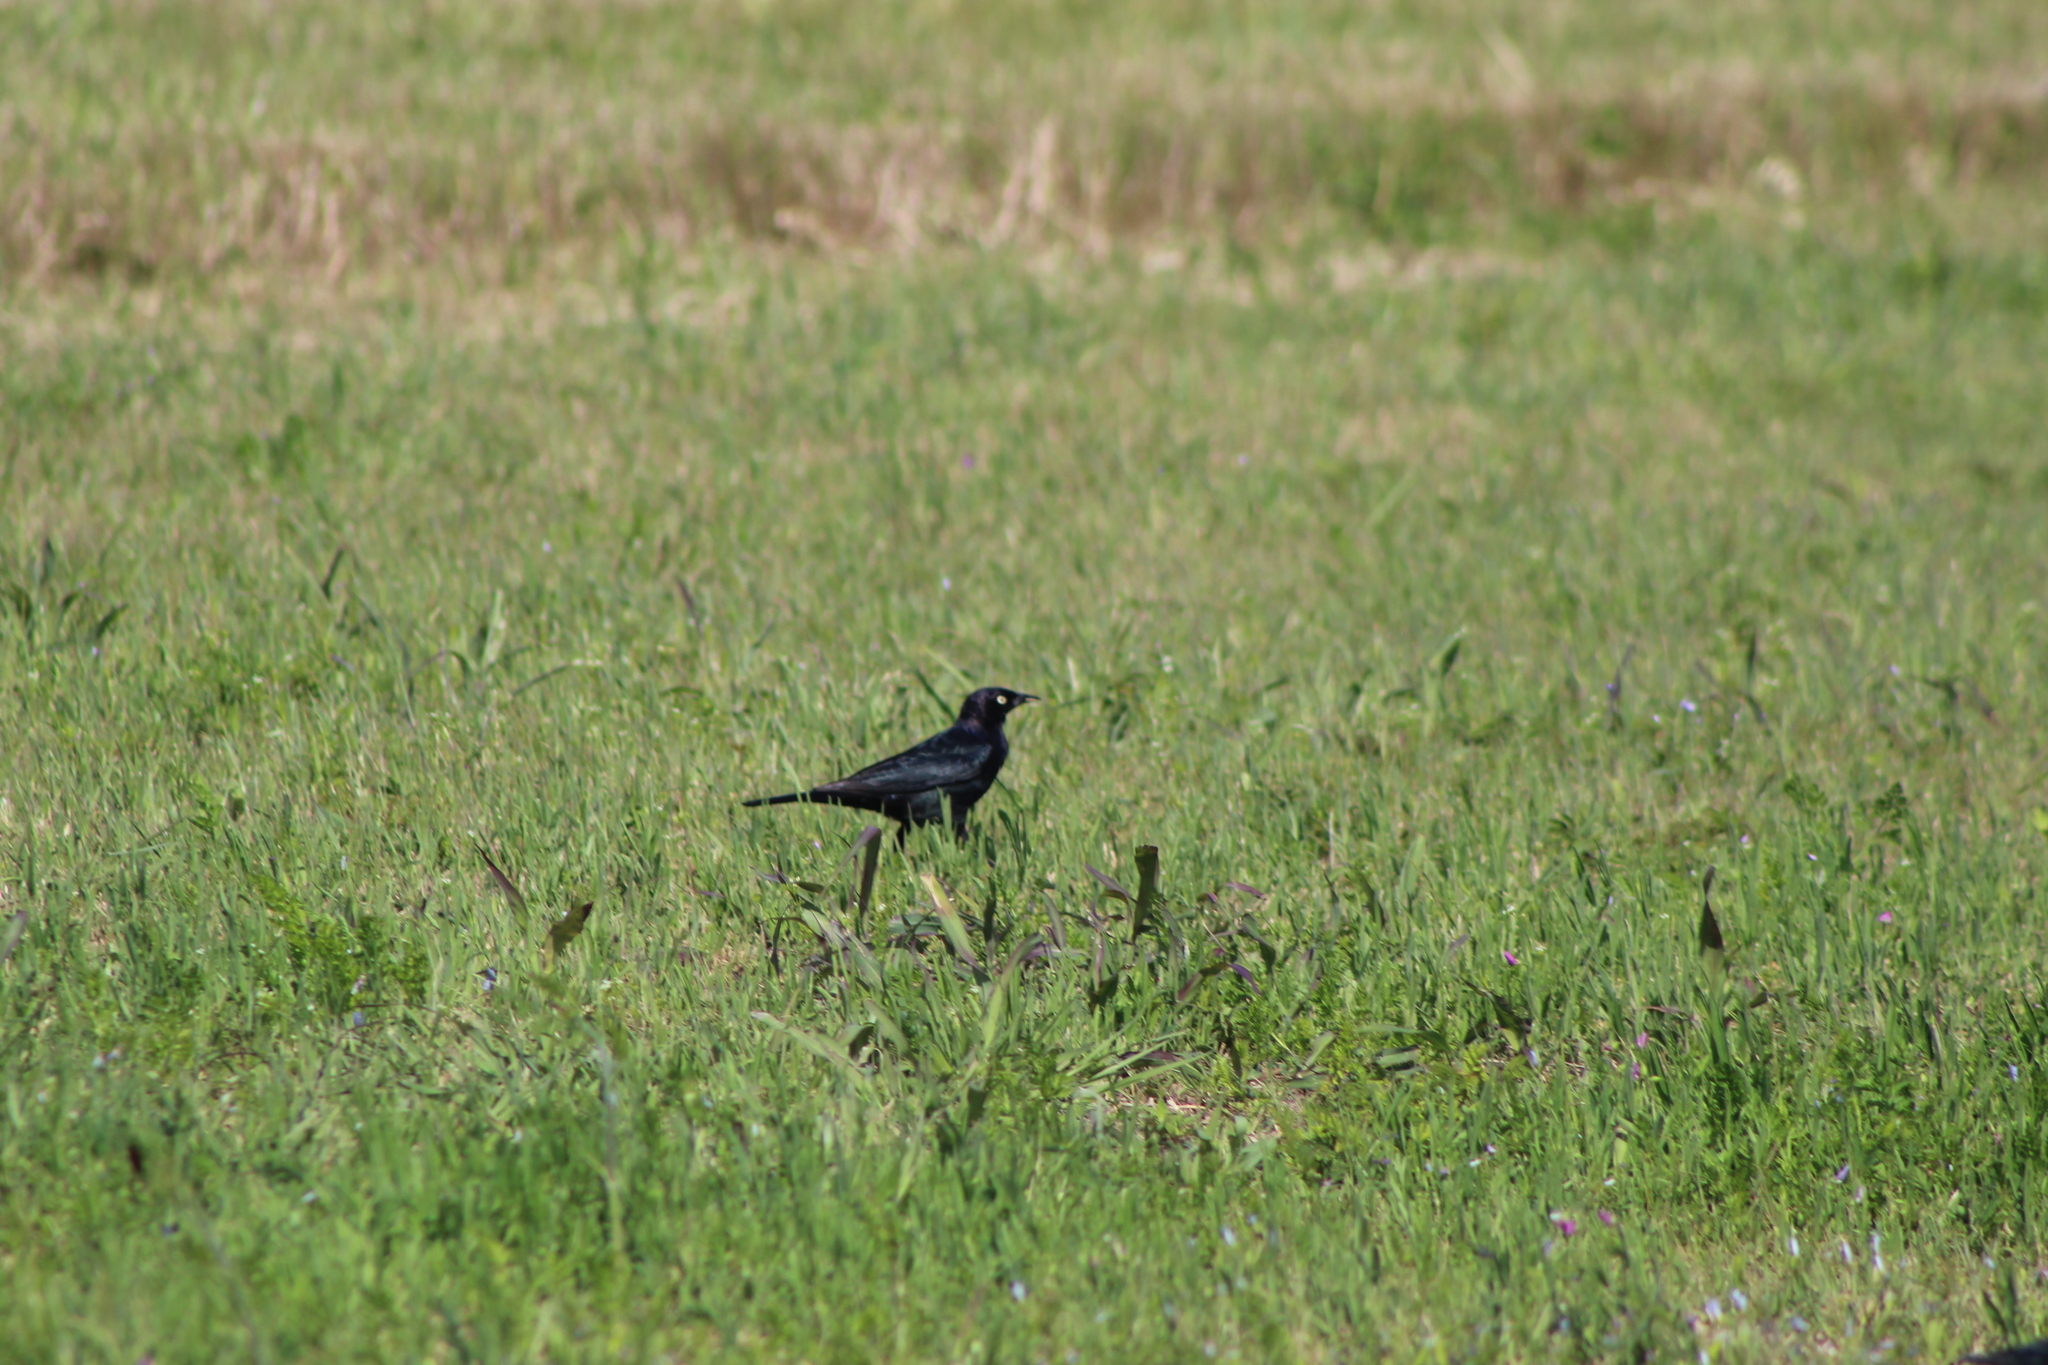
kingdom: Animalia
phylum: Chordata
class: Aves
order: Passeriformes
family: Icteridae
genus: Euphagus
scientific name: Euphagus cyanocephalus
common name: Brewer's blackbird
